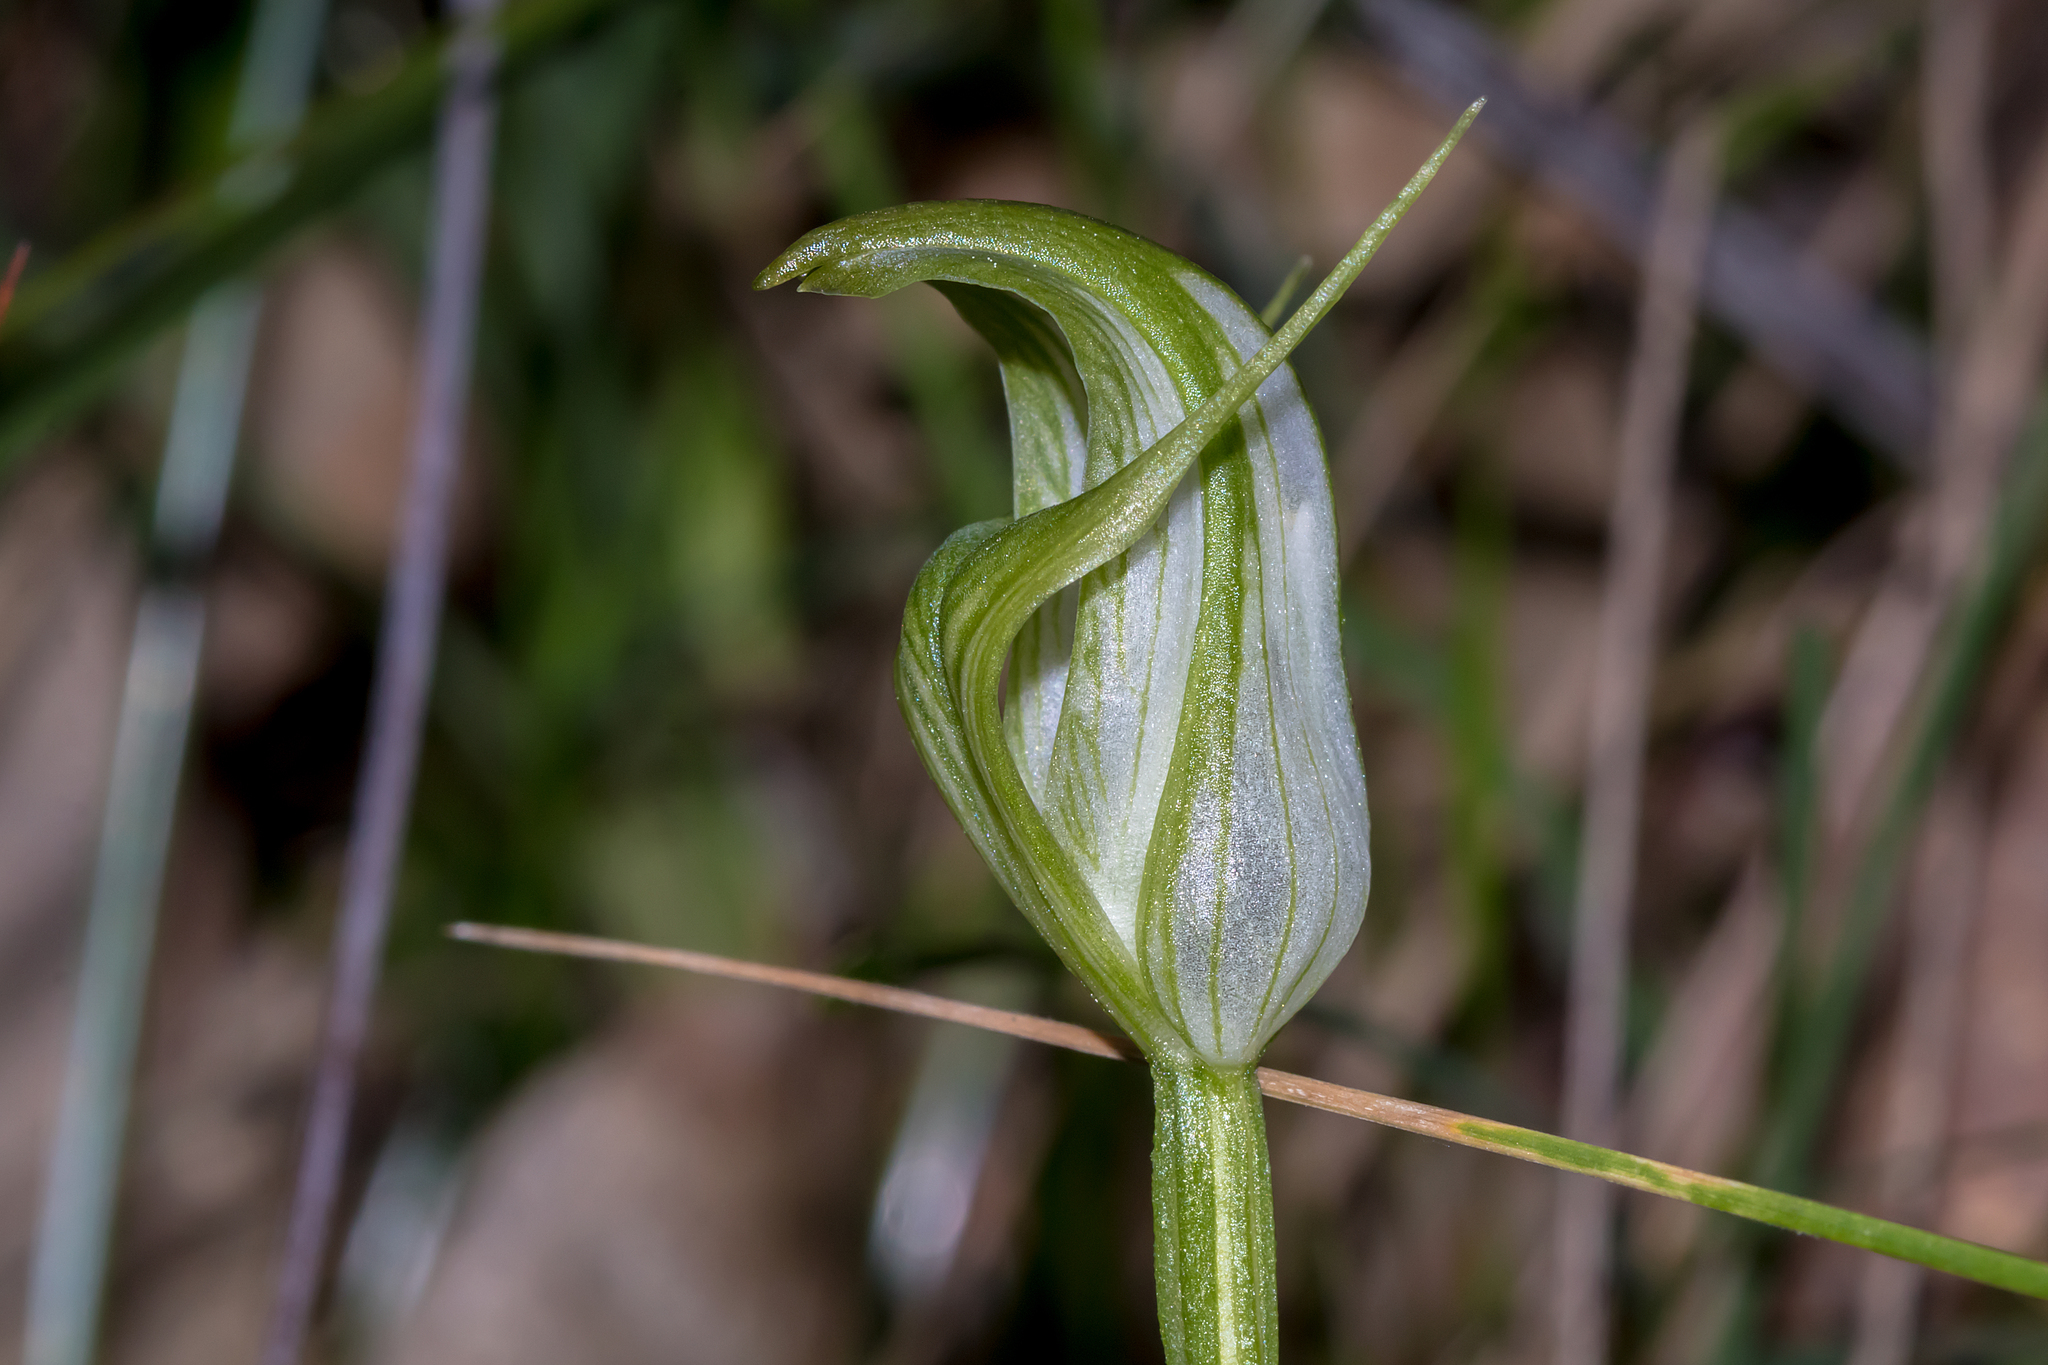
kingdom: Plantae
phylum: Tracheophyta
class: Liliopsida
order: Asparagales
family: Orchidaceae
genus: Pterostylis
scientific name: Pterostylis alpina
